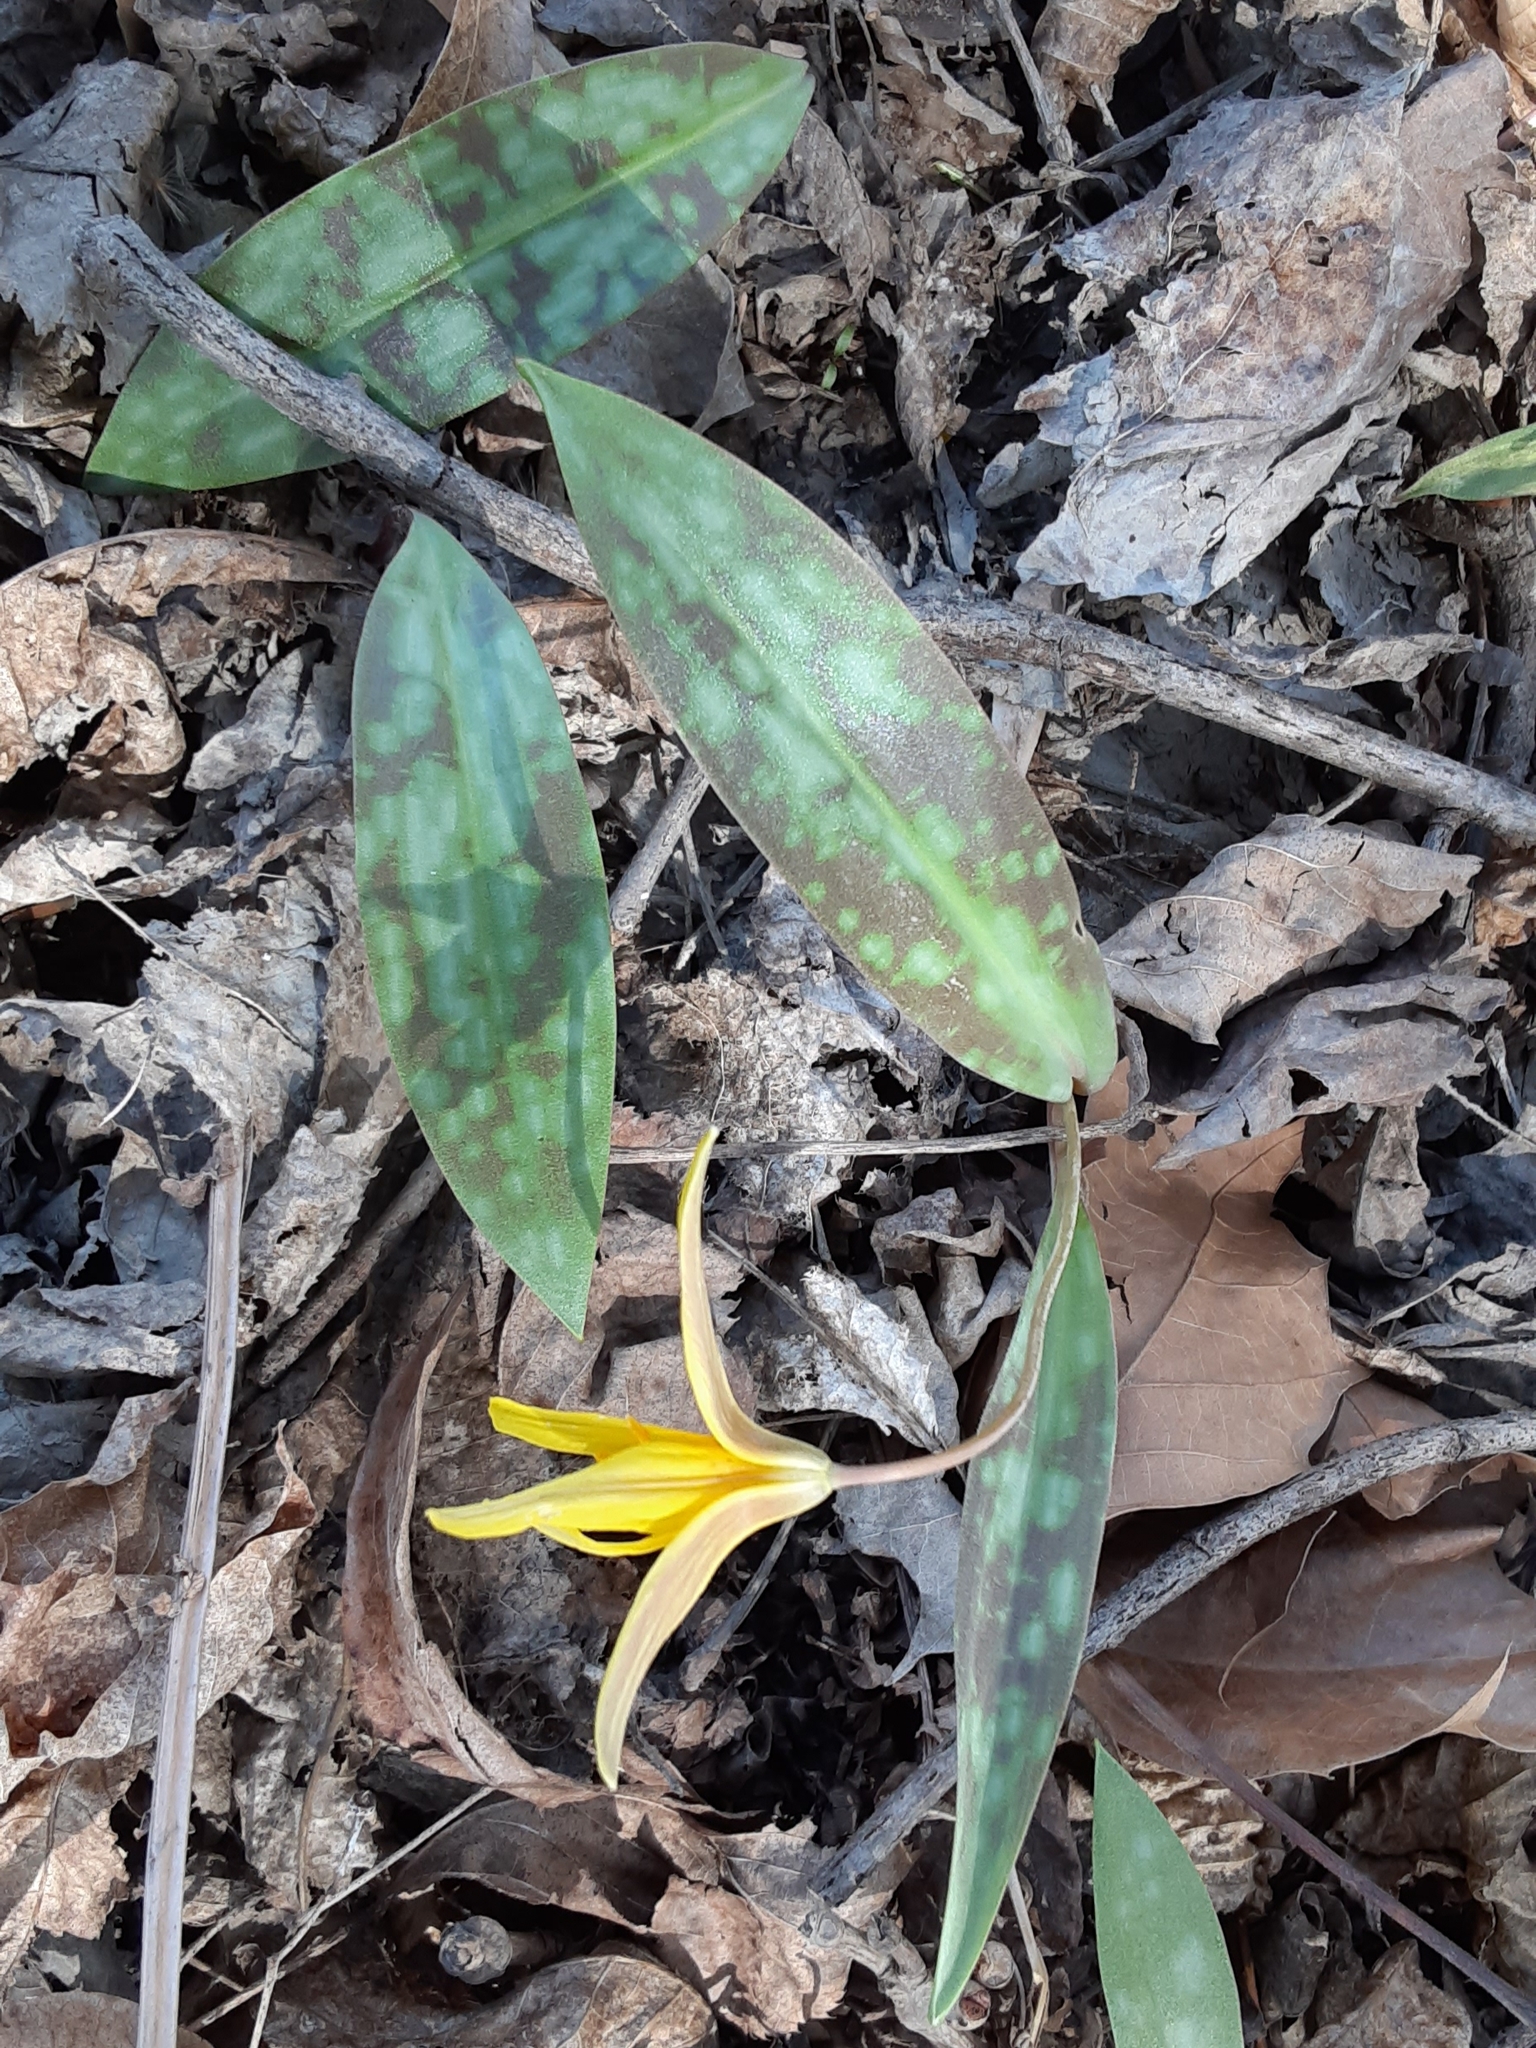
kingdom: Plantae
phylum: Tracheophyta
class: Liliopsida
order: Liliales
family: Liliaceae
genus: Erythronium
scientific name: Erythronium americanum
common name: Yellow adder's-tongue
